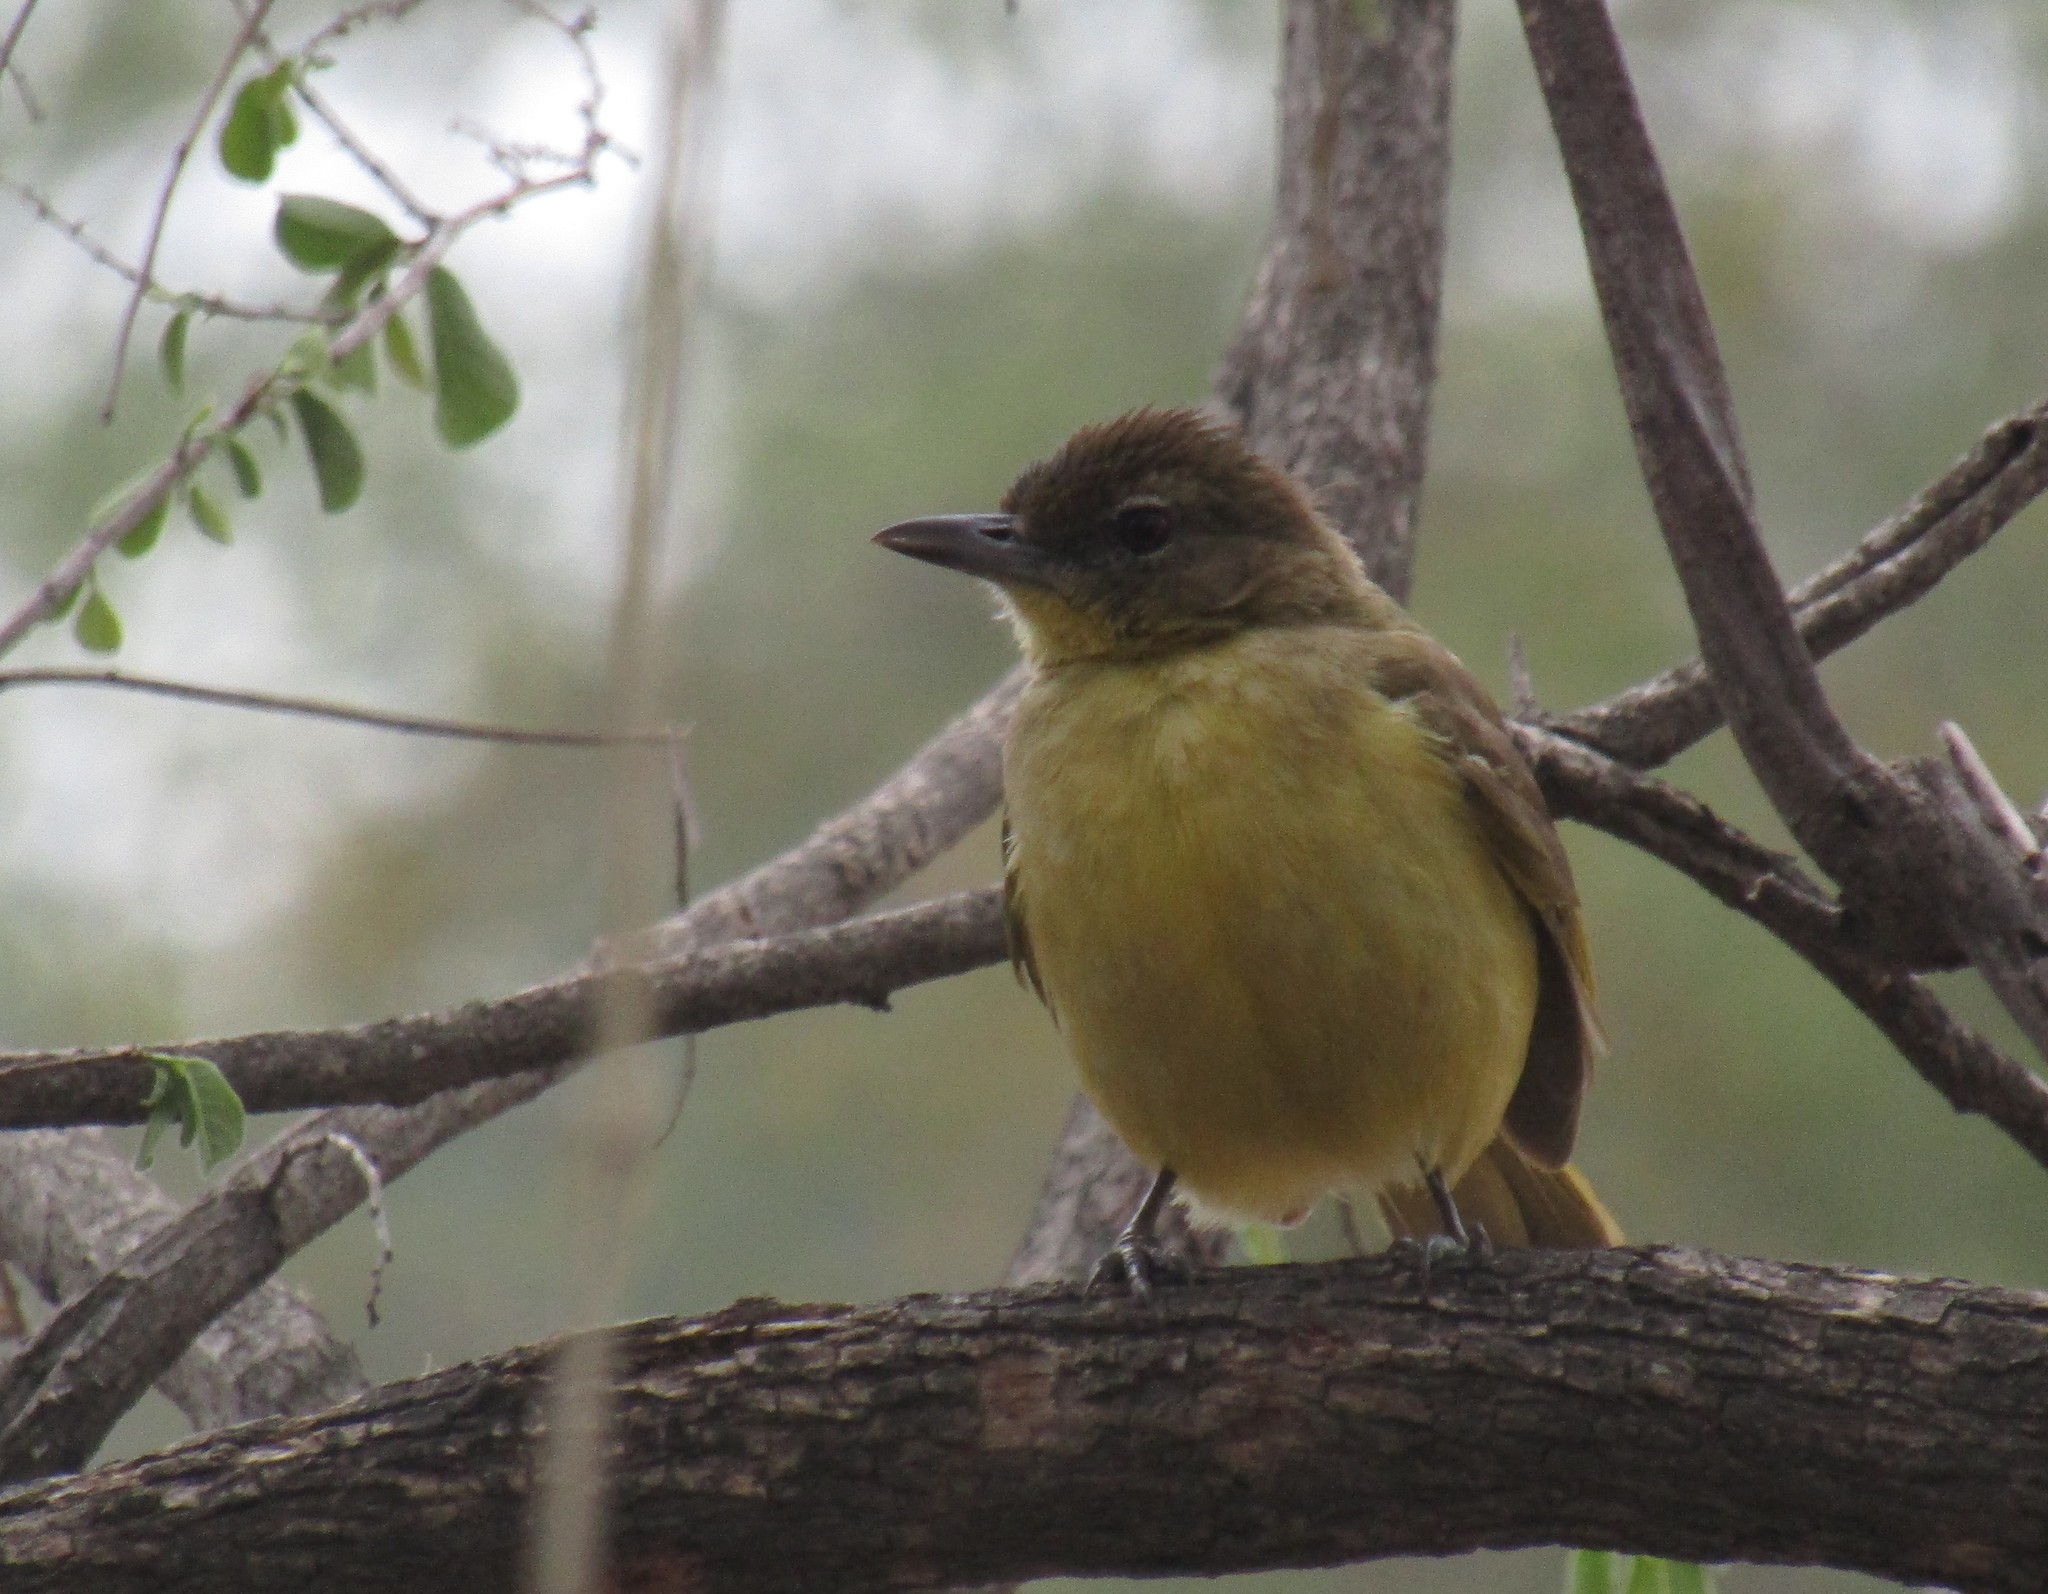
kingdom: Animalia
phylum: Chordata
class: Aves
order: Passeriformes
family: Pycnonotidae
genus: Chlorocichla
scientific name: Chlorocichla flaviventris
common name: Yellow-bellied greenbul
